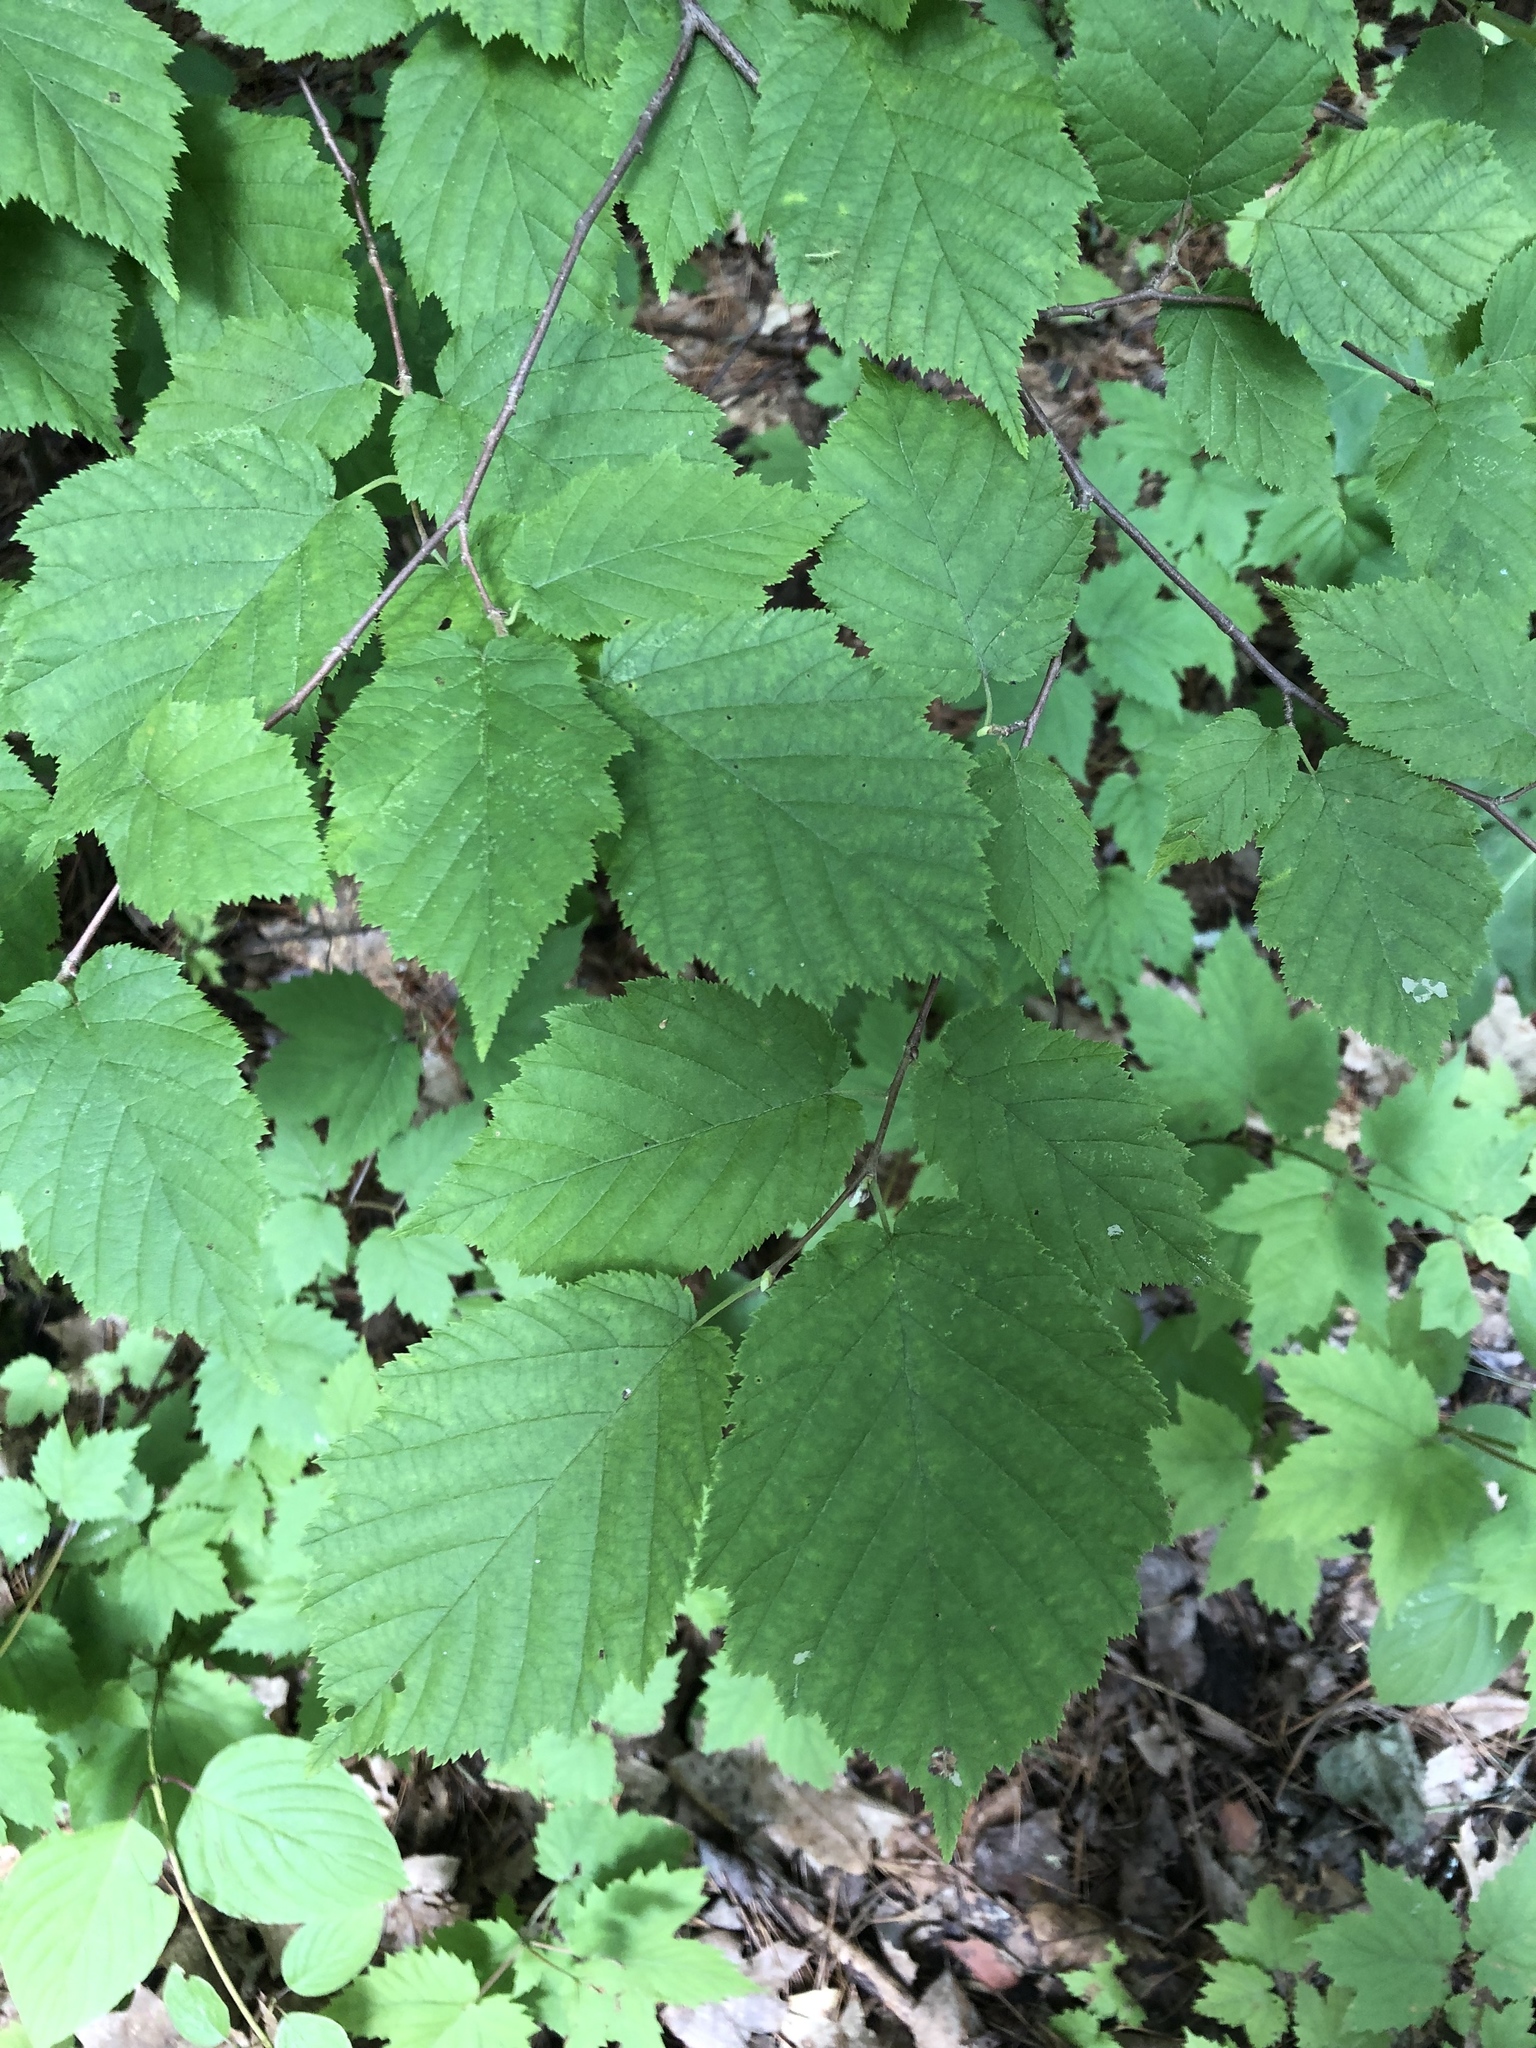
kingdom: Plantae
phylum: Tracheophyta
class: Magnoliopsida
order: Fagales
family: Betulaceae
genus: Corylus
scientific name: Corylus cornuta
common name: Beaked hazel
